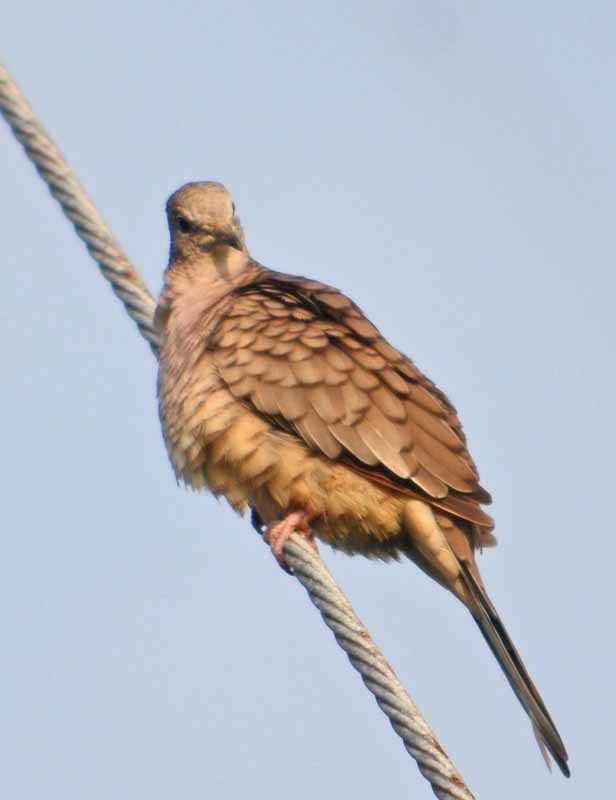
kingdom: Animalia
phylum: Chordata
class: Aves
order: Columbiformes
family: Columbidae
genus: Columbina
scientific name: Columbina inca
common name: Inca dove
